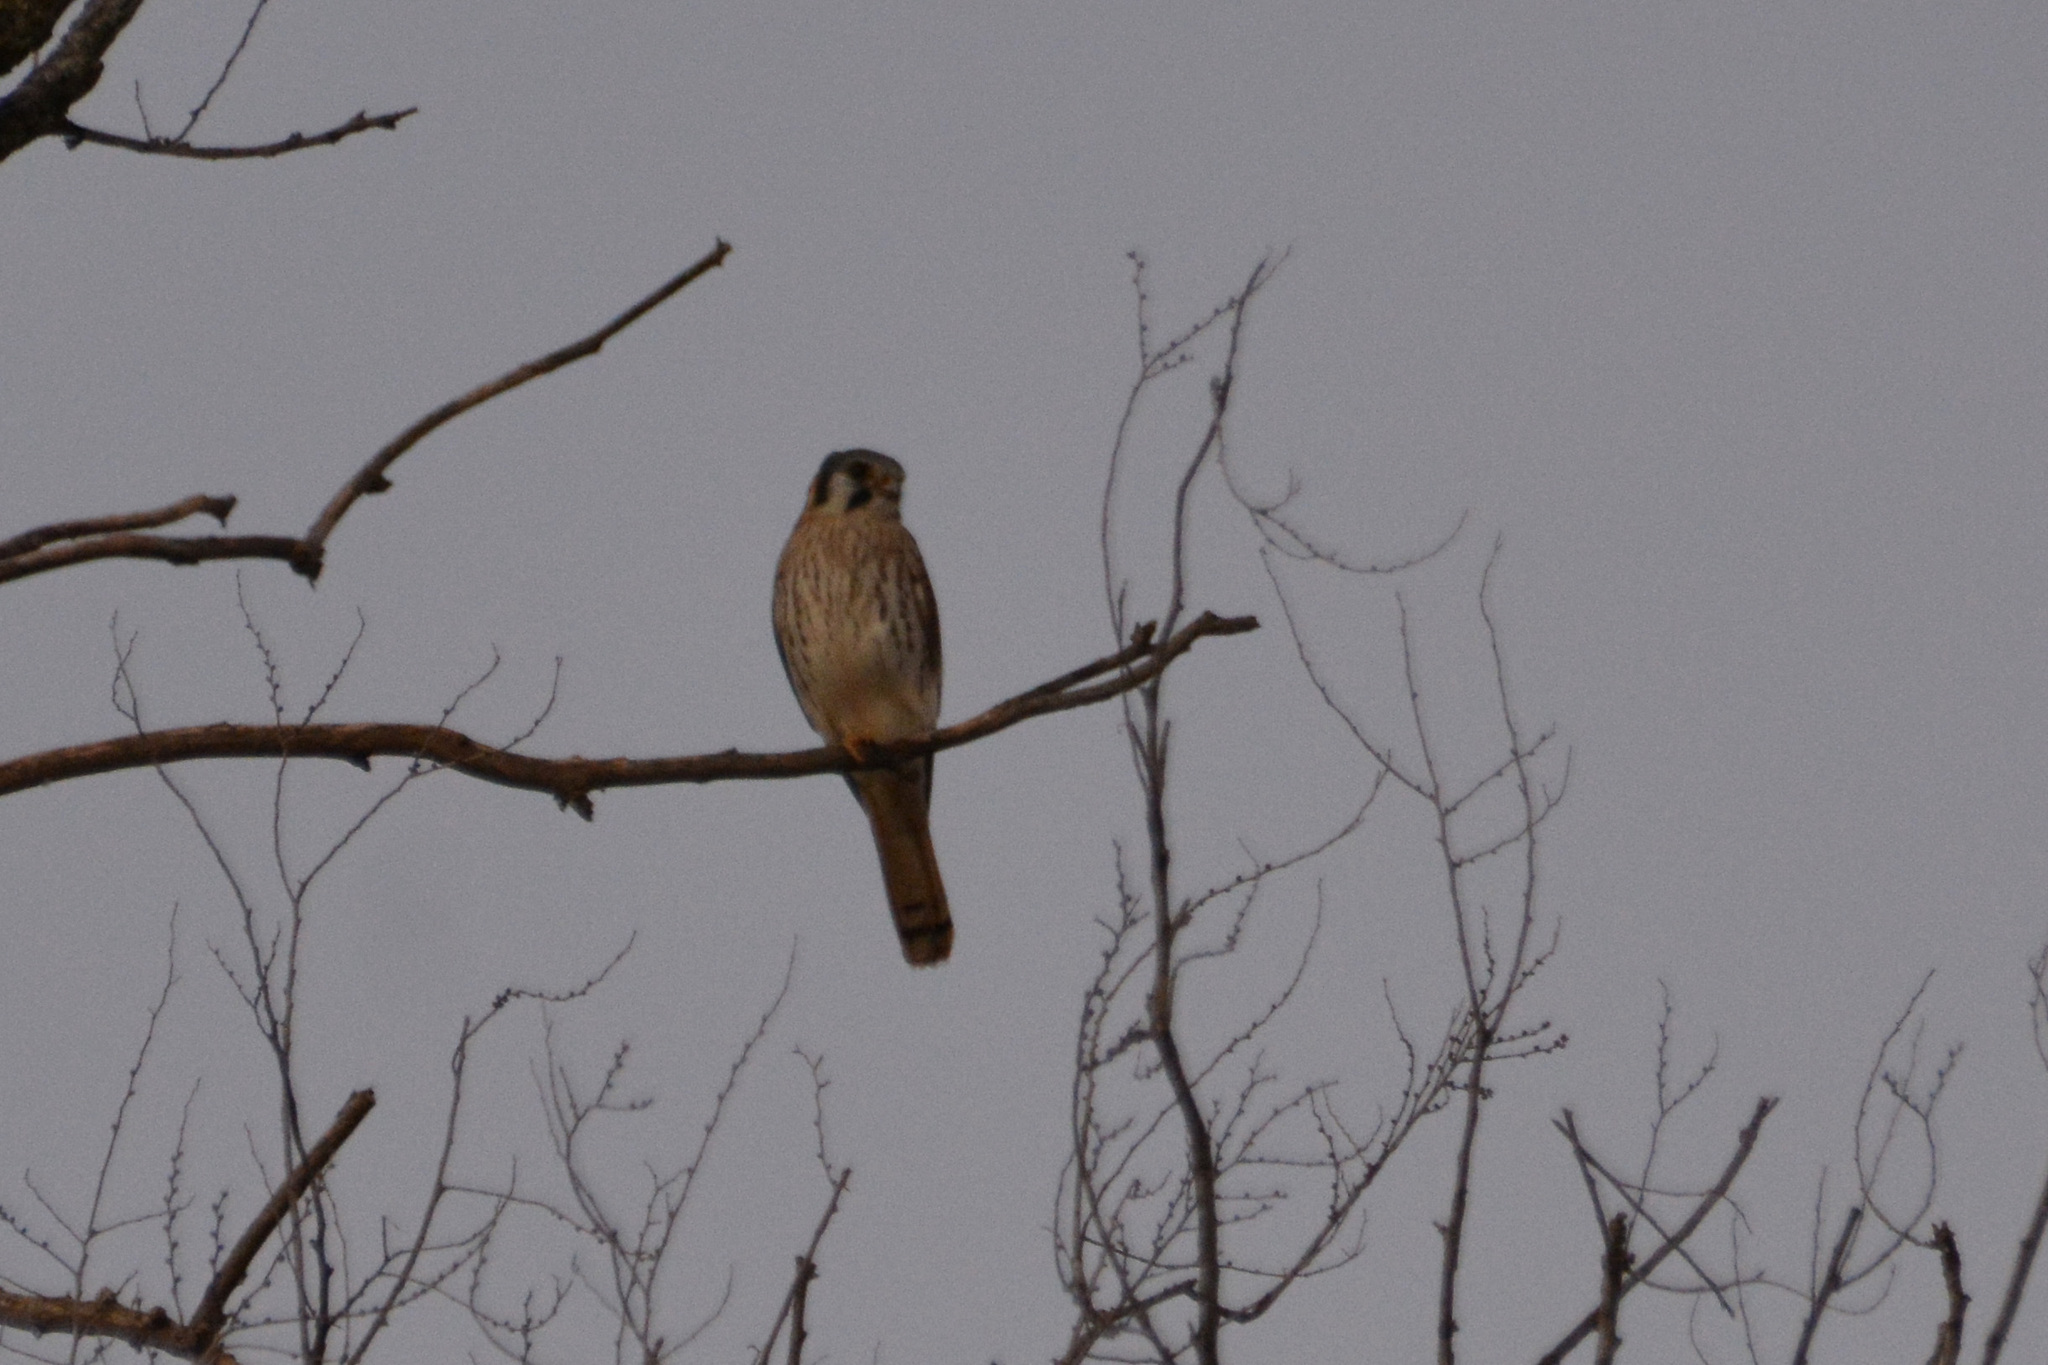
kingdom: Animalia
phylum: Chordata
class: Aves
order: Falconiformes
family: Falconidae
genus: Falco
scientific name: Falco sparverius
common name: American kestrel
